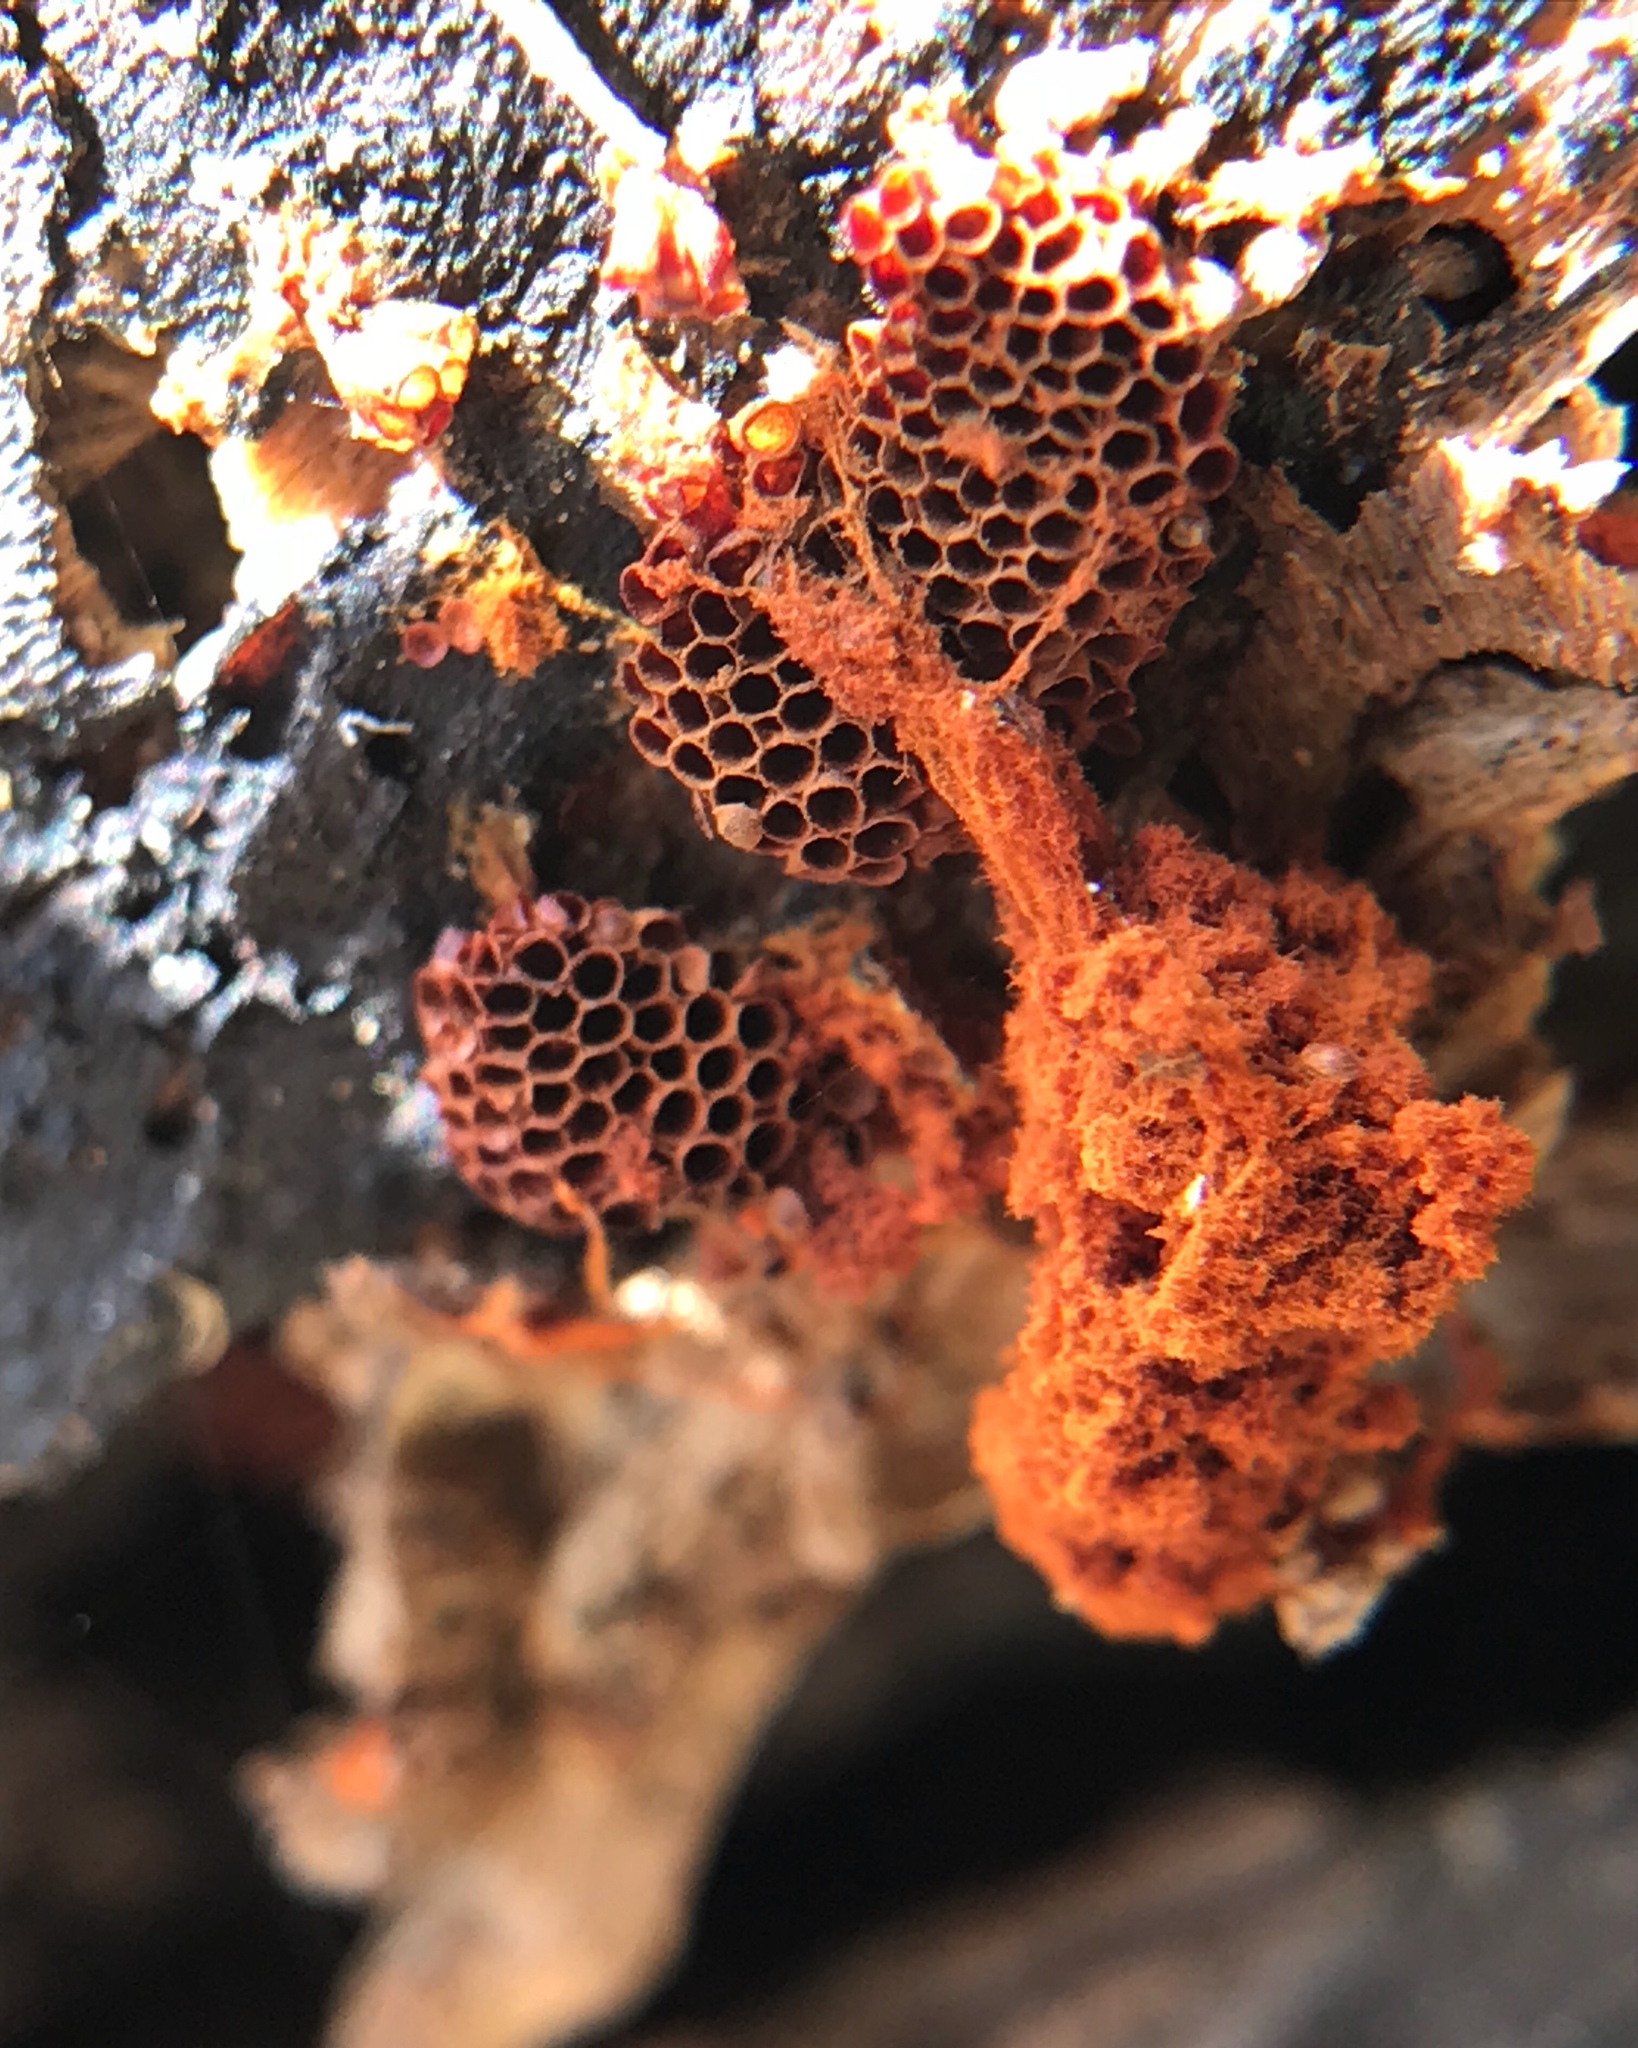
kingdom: Protozoa
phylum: Mycetozoa
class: Myxomycetes
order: Trichiales
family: Trichiaceae
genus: Metatrichia
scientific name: Metatrichia vesparia
